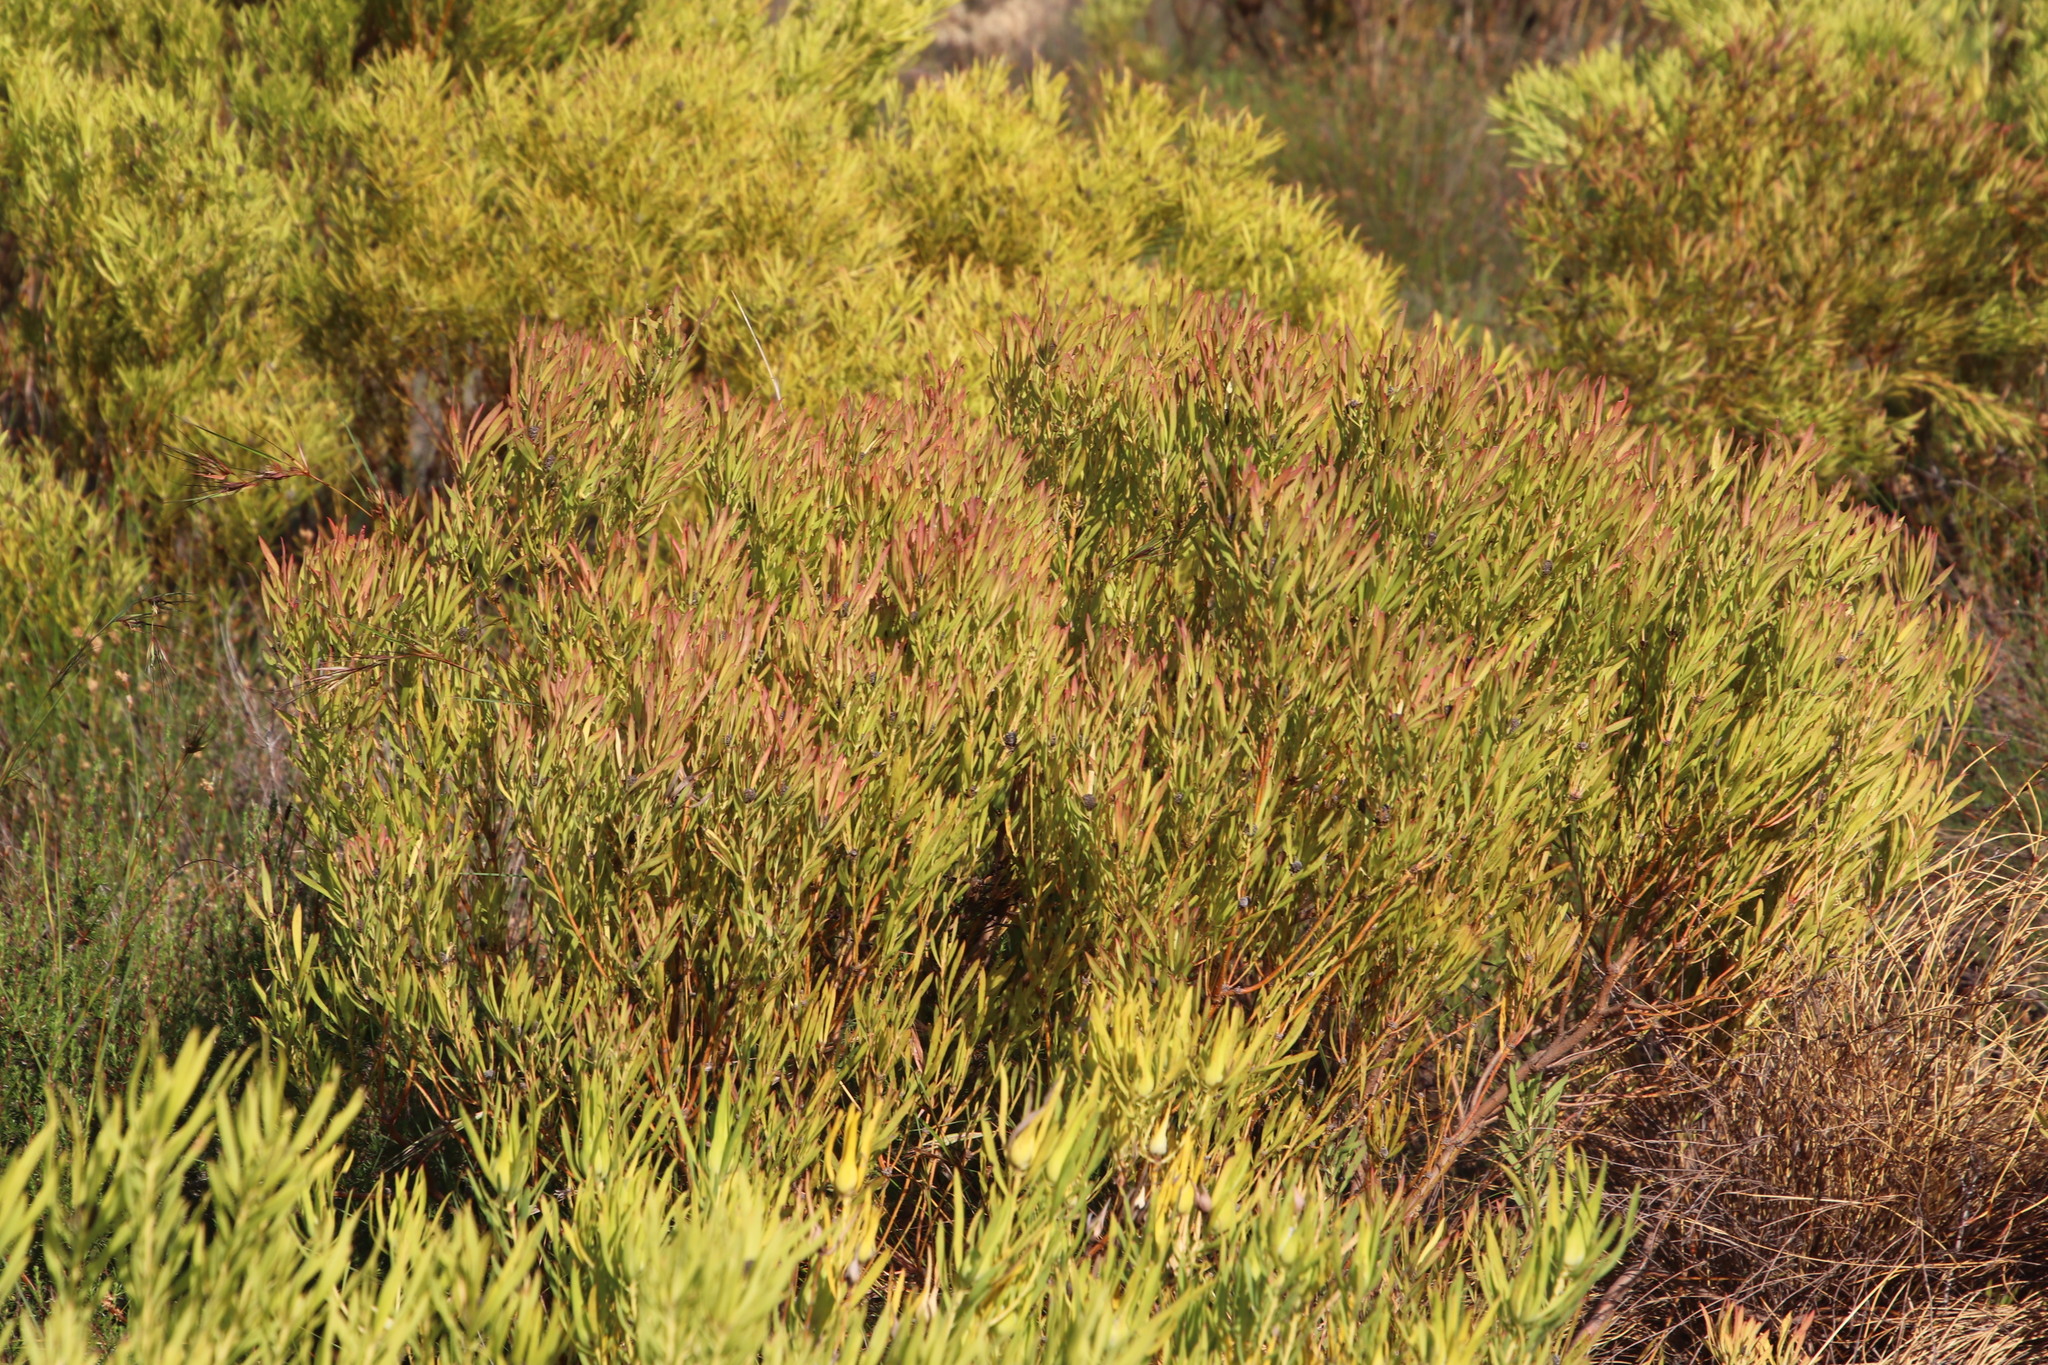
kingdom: Plantae
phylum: Tracheophyta
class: Magnoliopsida
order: Proteales
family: Proteaceae
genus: Leucadendron
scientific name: Leucadendron salignum
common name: Common sunshine conebush
